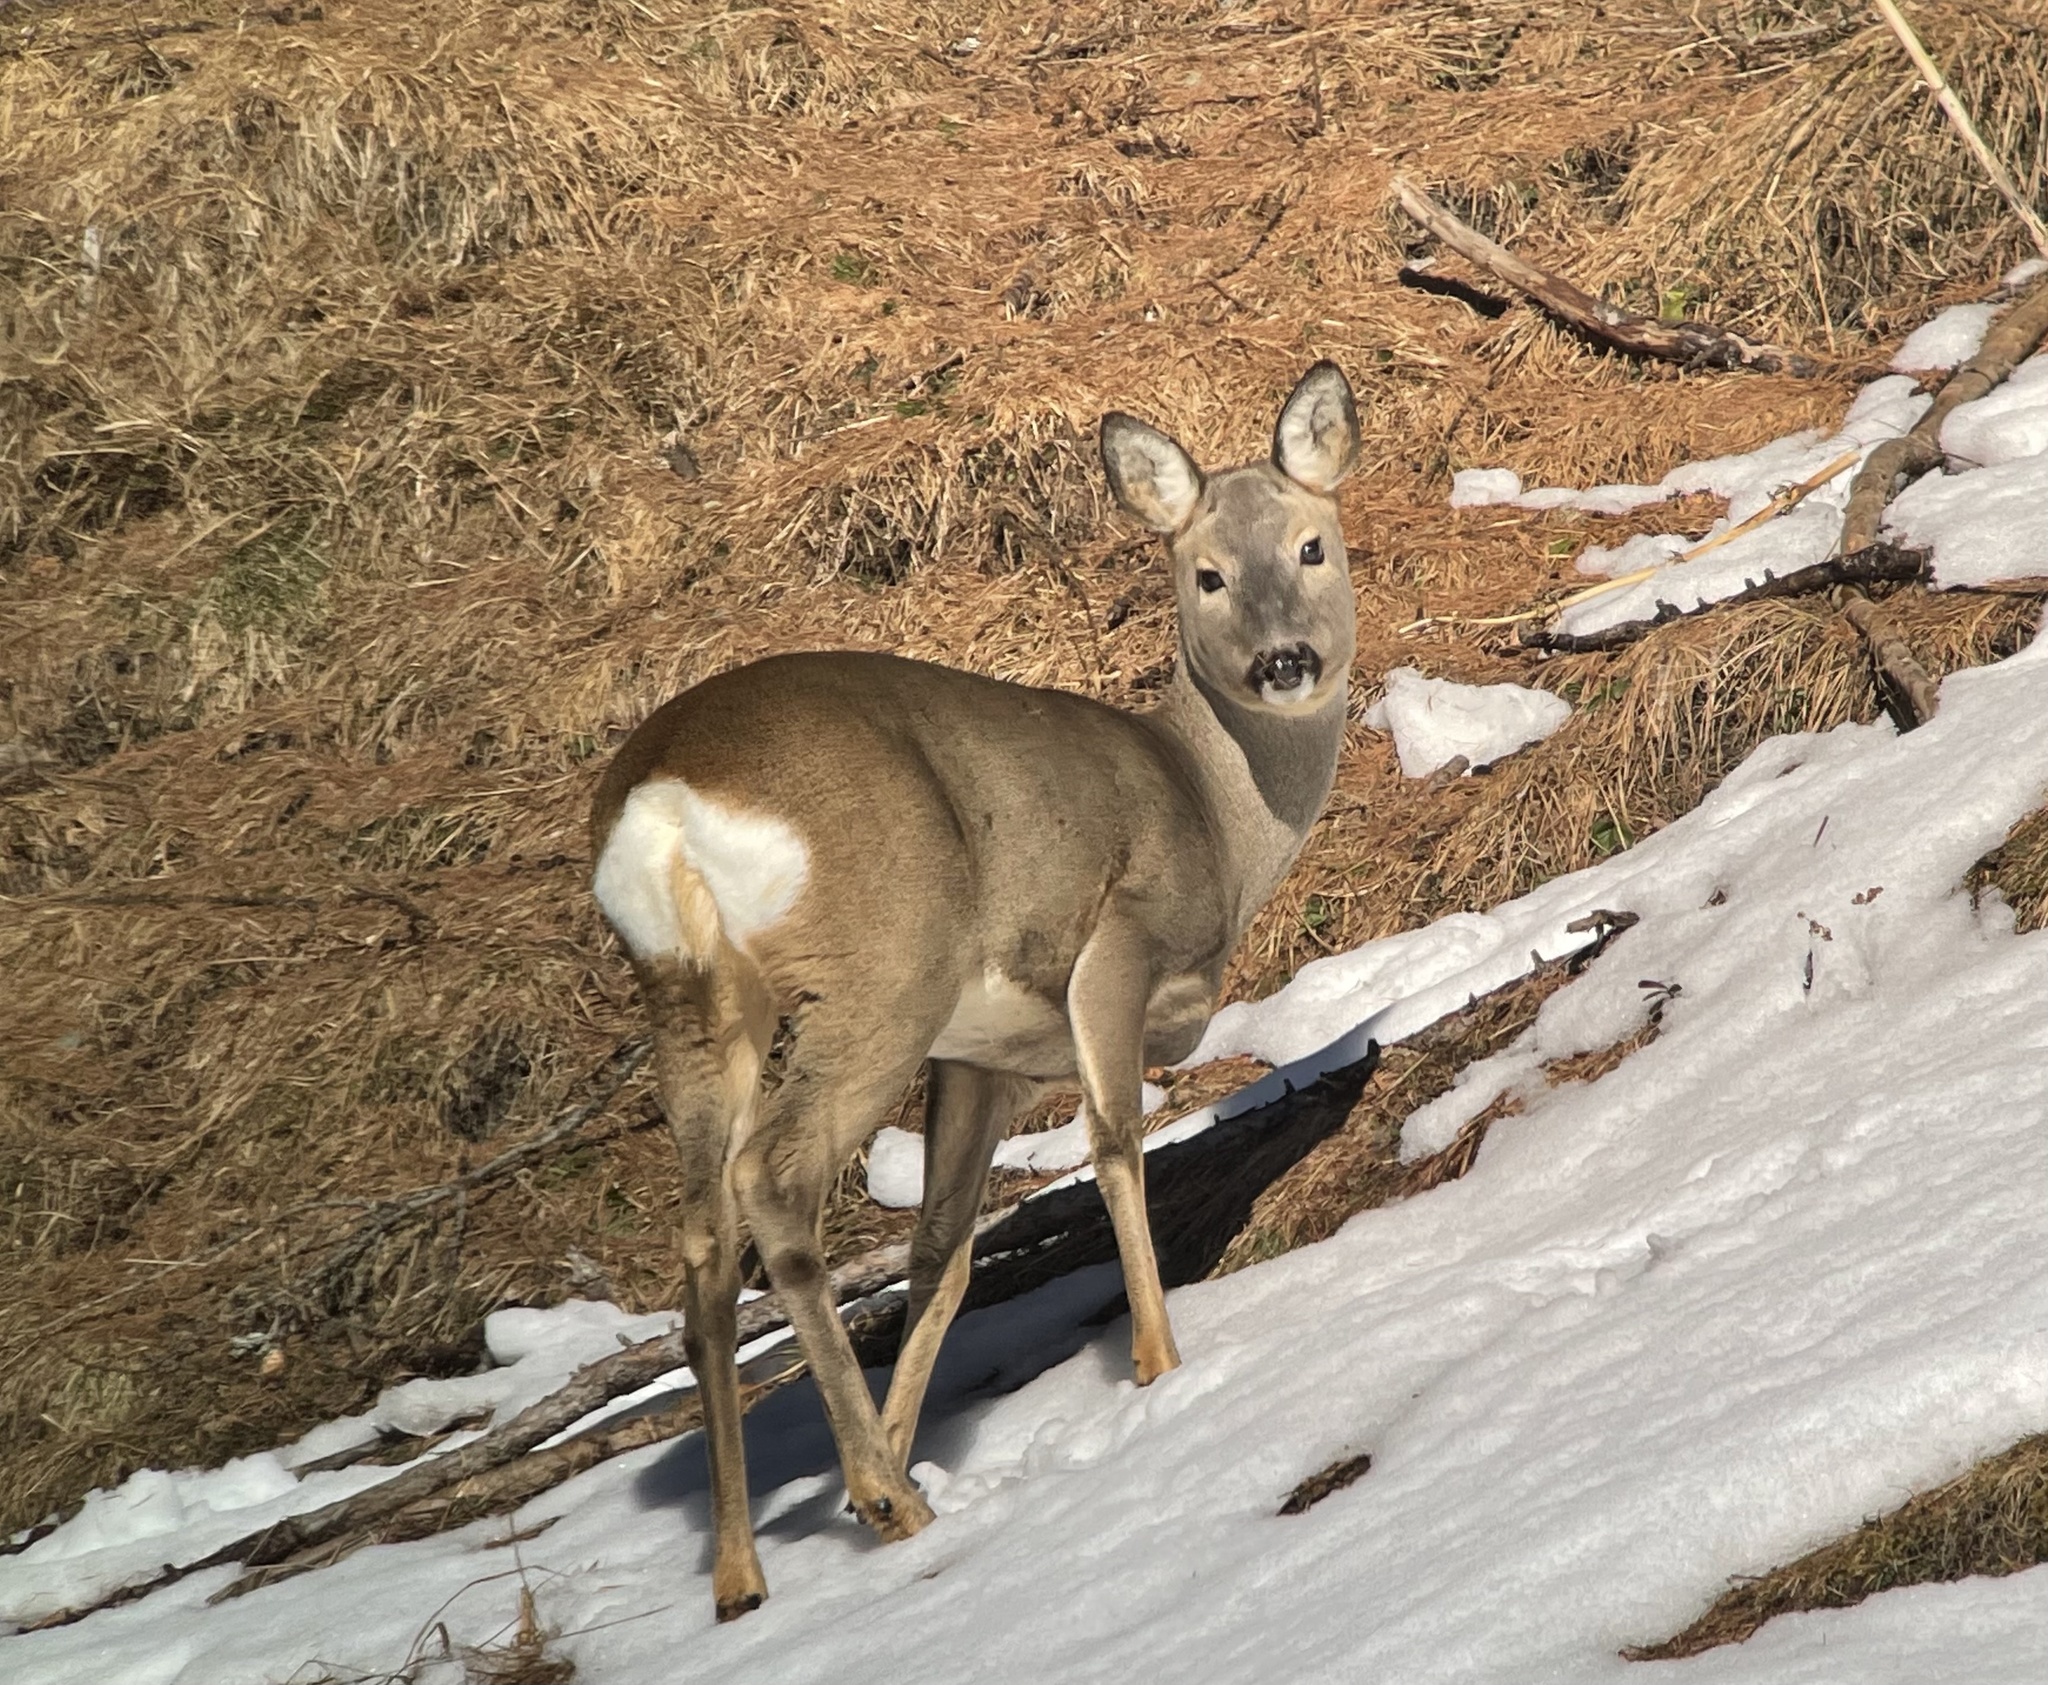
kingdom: Animalia
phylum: Chordata
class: Mammalia
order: Artiodactyla
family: Cervidae
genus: Capreolus
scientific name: Capreolus capreolus
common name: Western roe deer
